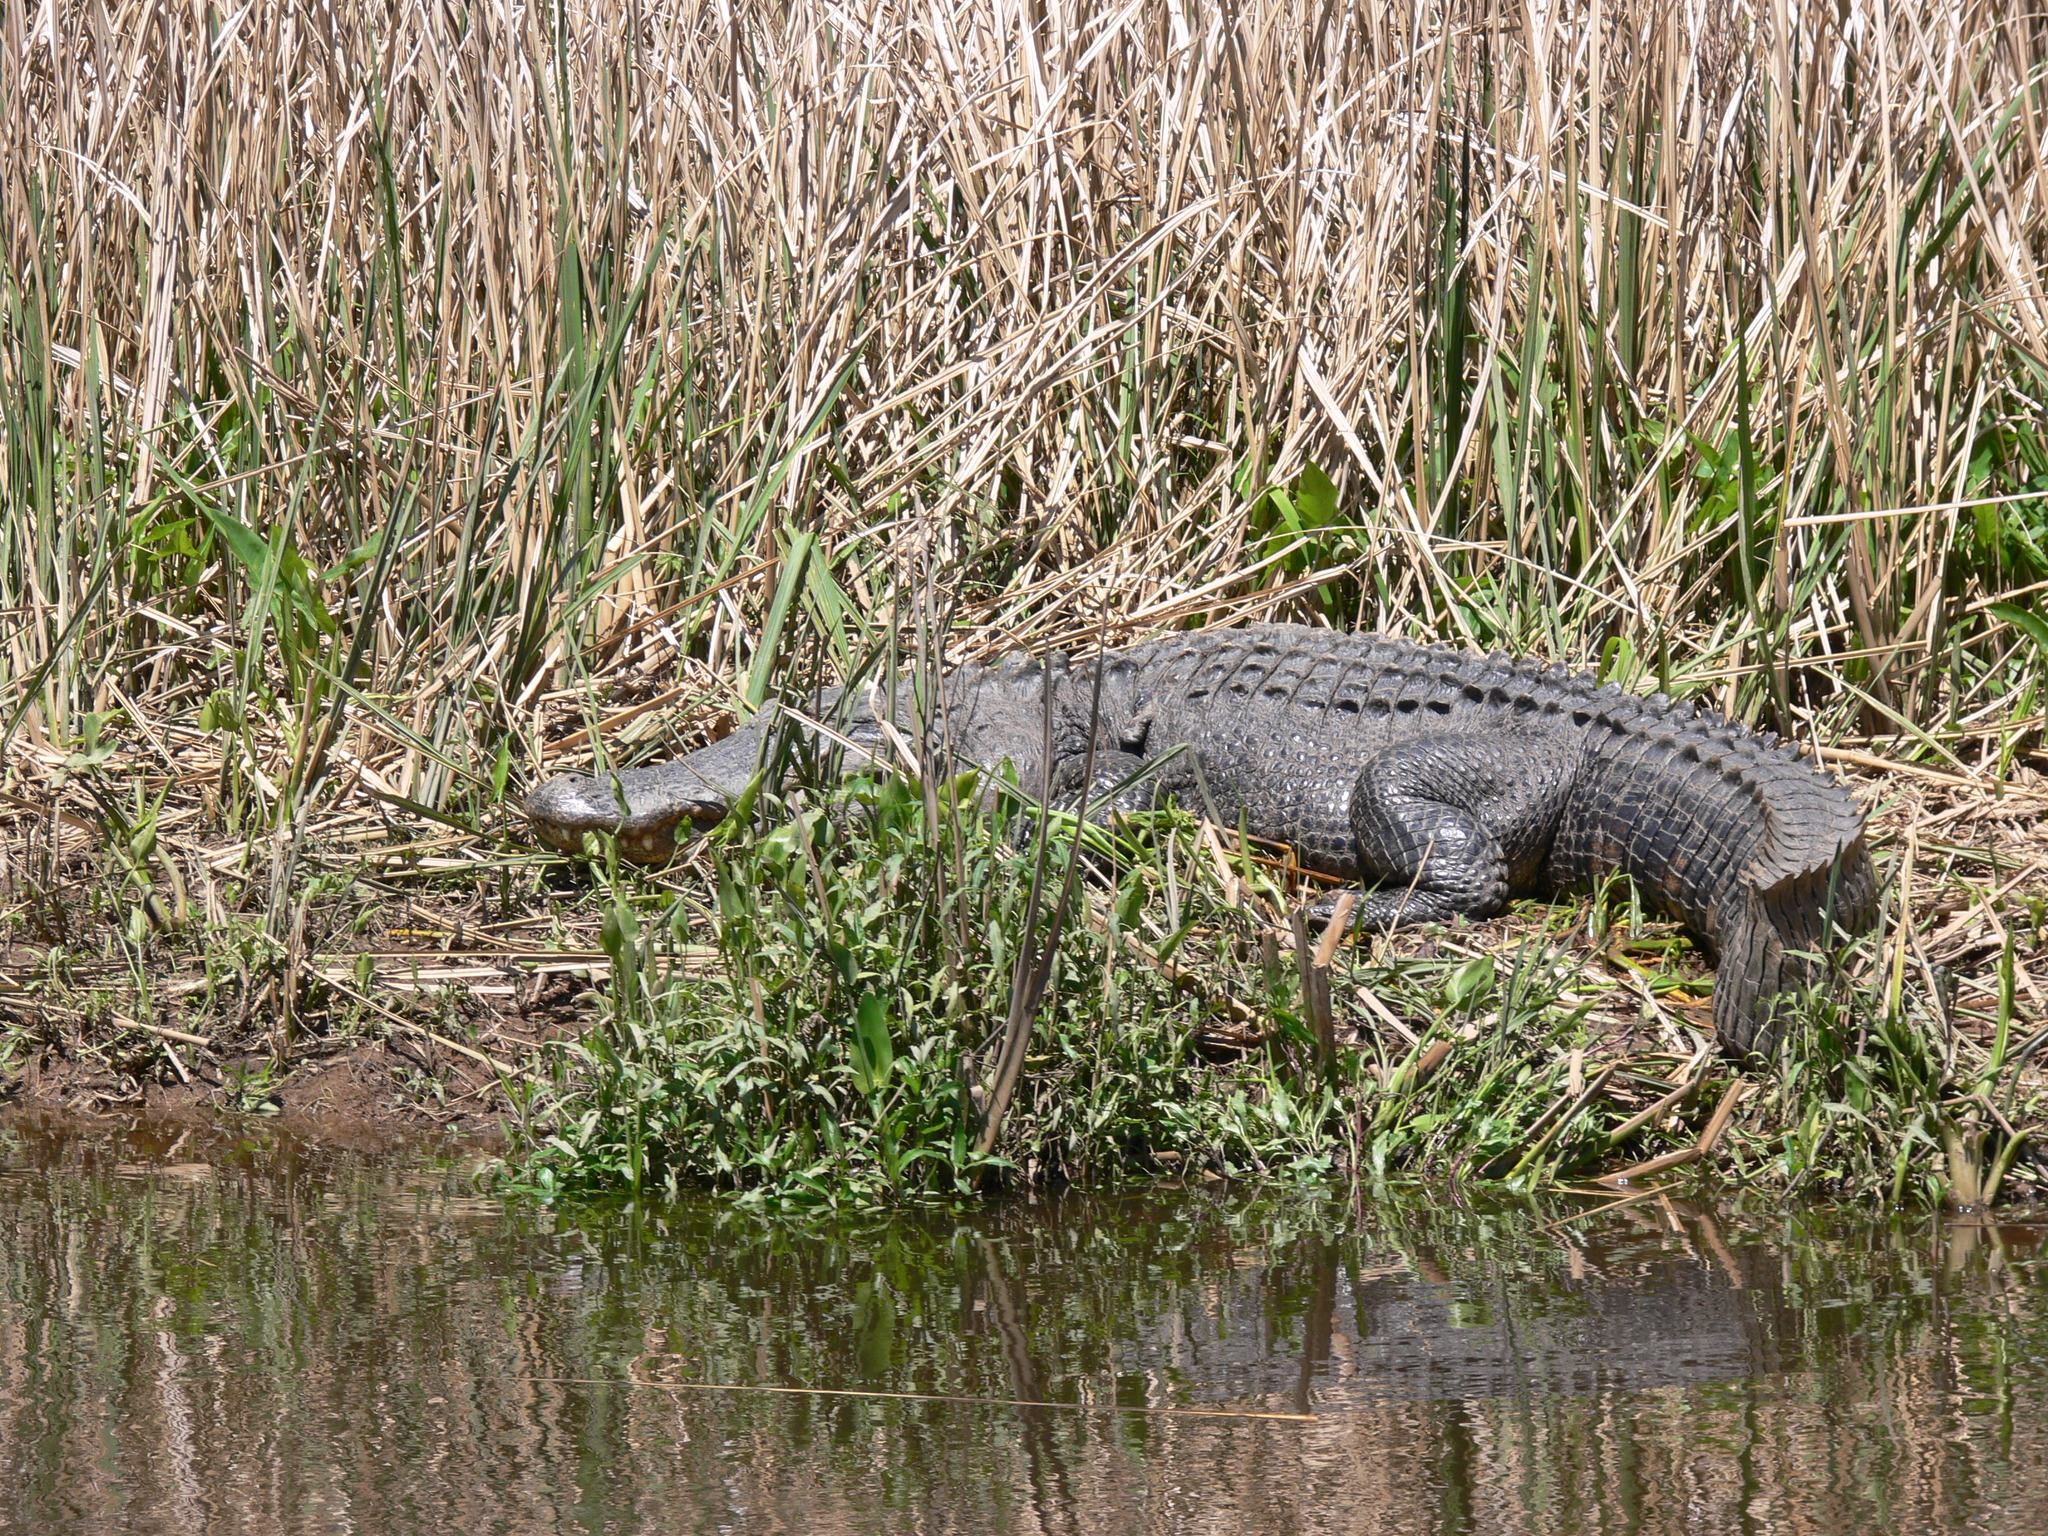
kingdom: Animalia
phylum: Chordata
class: Crocodylia
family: Alligatoridae
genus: Alligator
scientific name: Alligator mississippiensis
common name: American alligator
